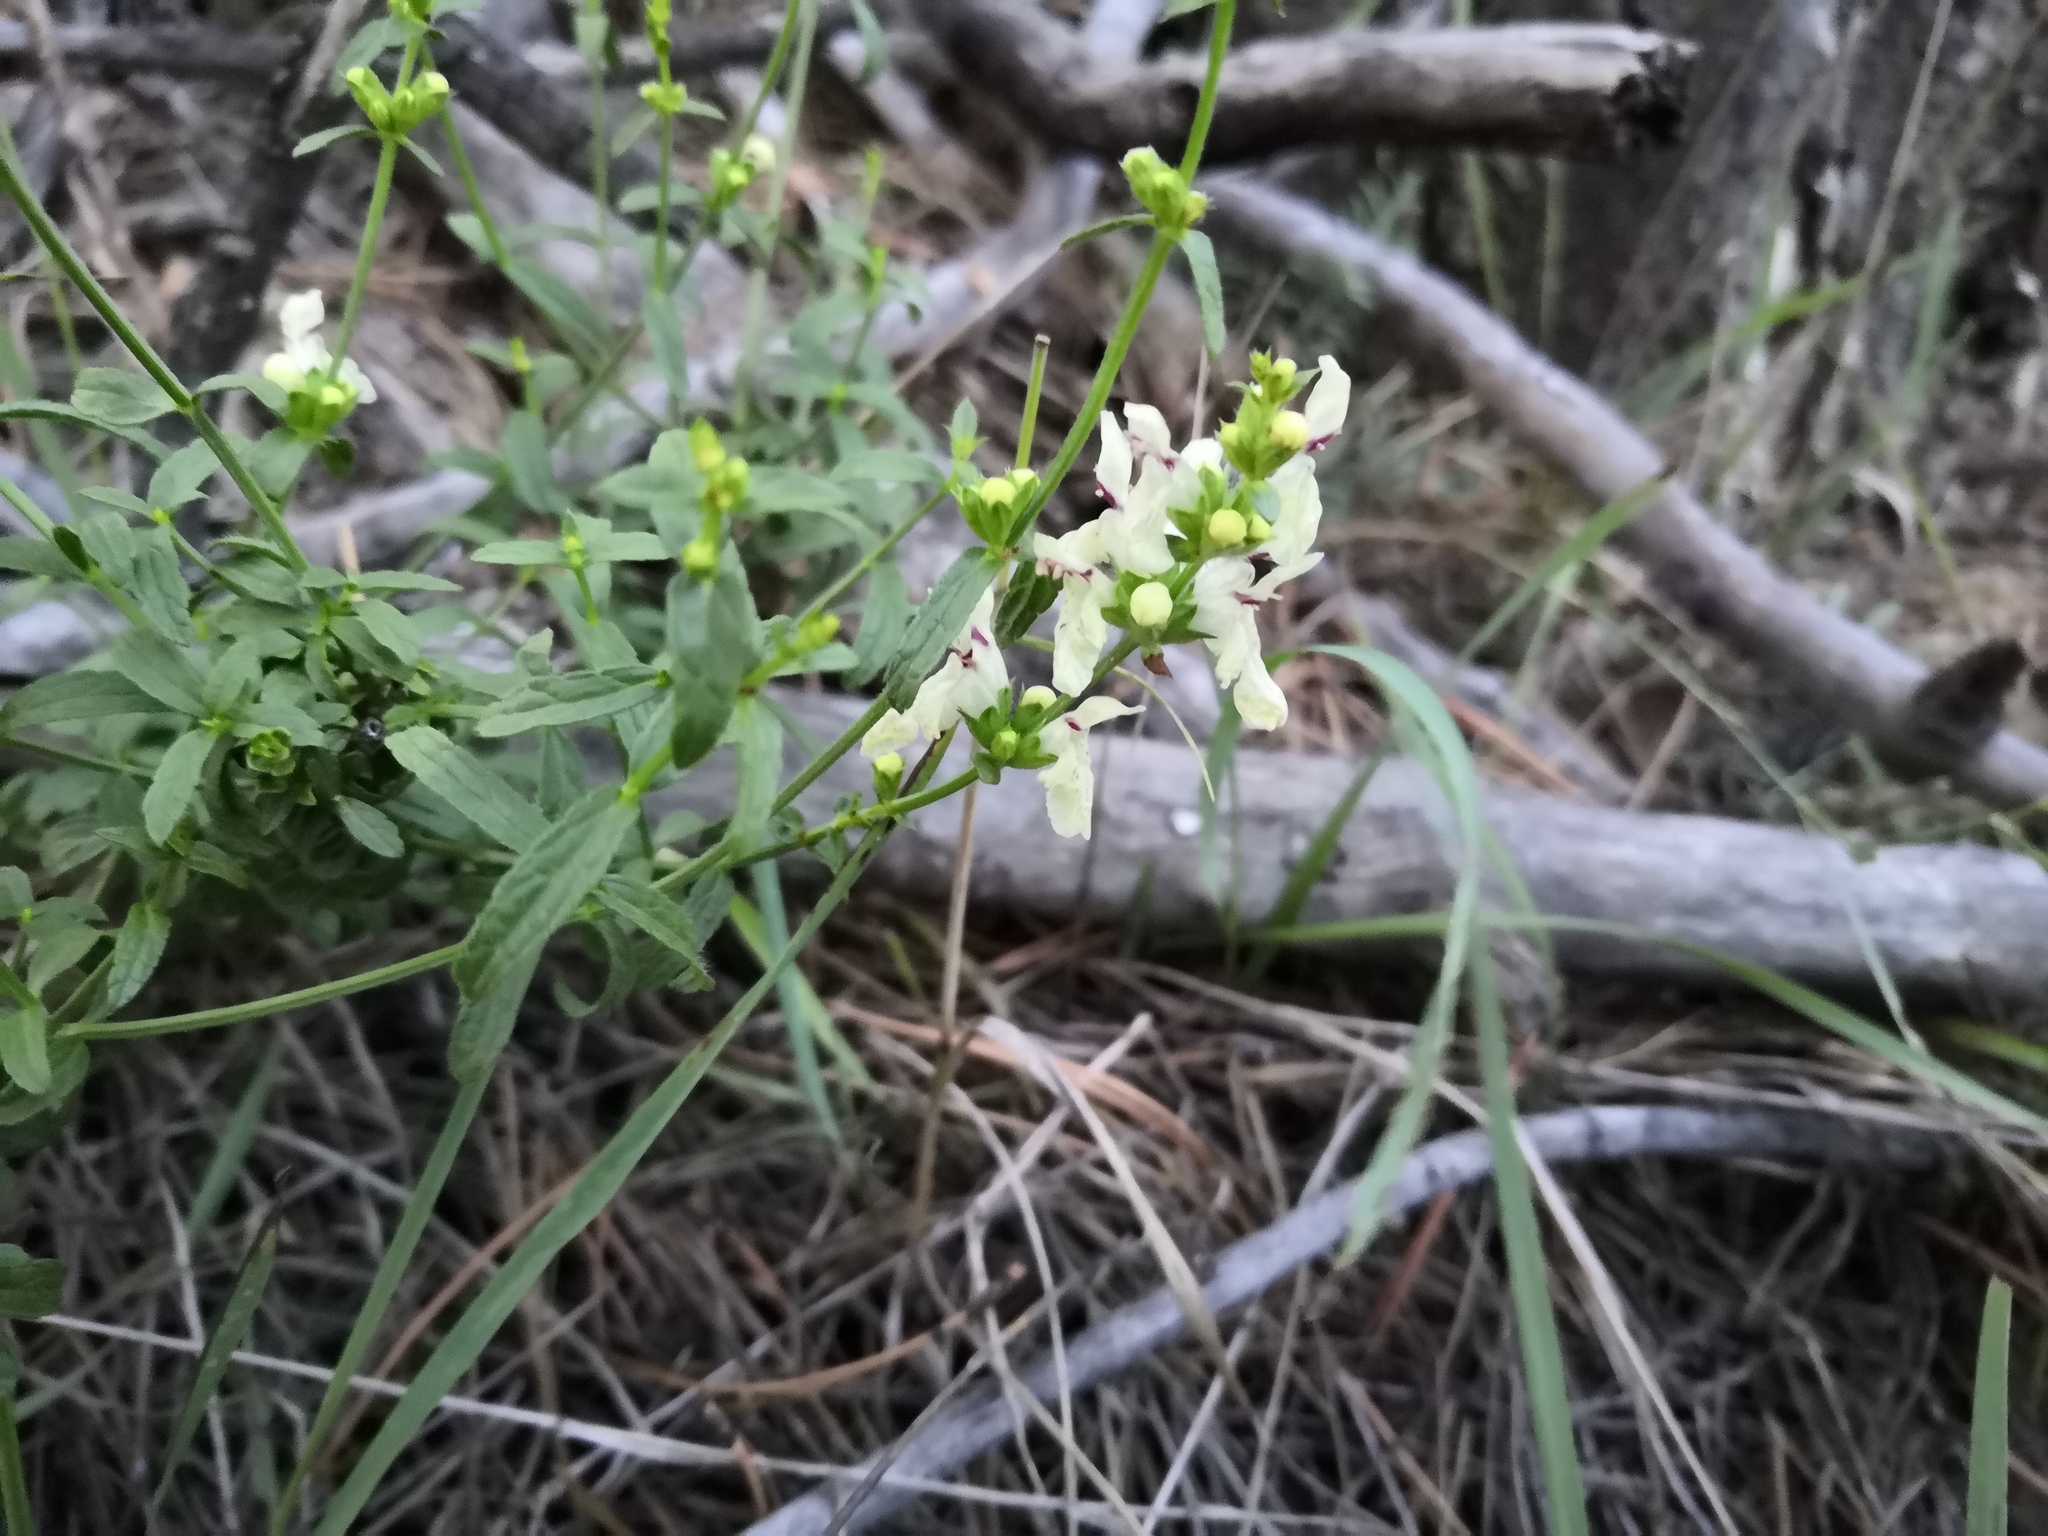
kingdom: Plantae
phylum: Tracheophyta
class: Magnoliopsida
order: Lamiales
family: Lamiaceae
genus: Stachys
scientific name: Stachys recta
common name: Perennial yellow-woundwort
